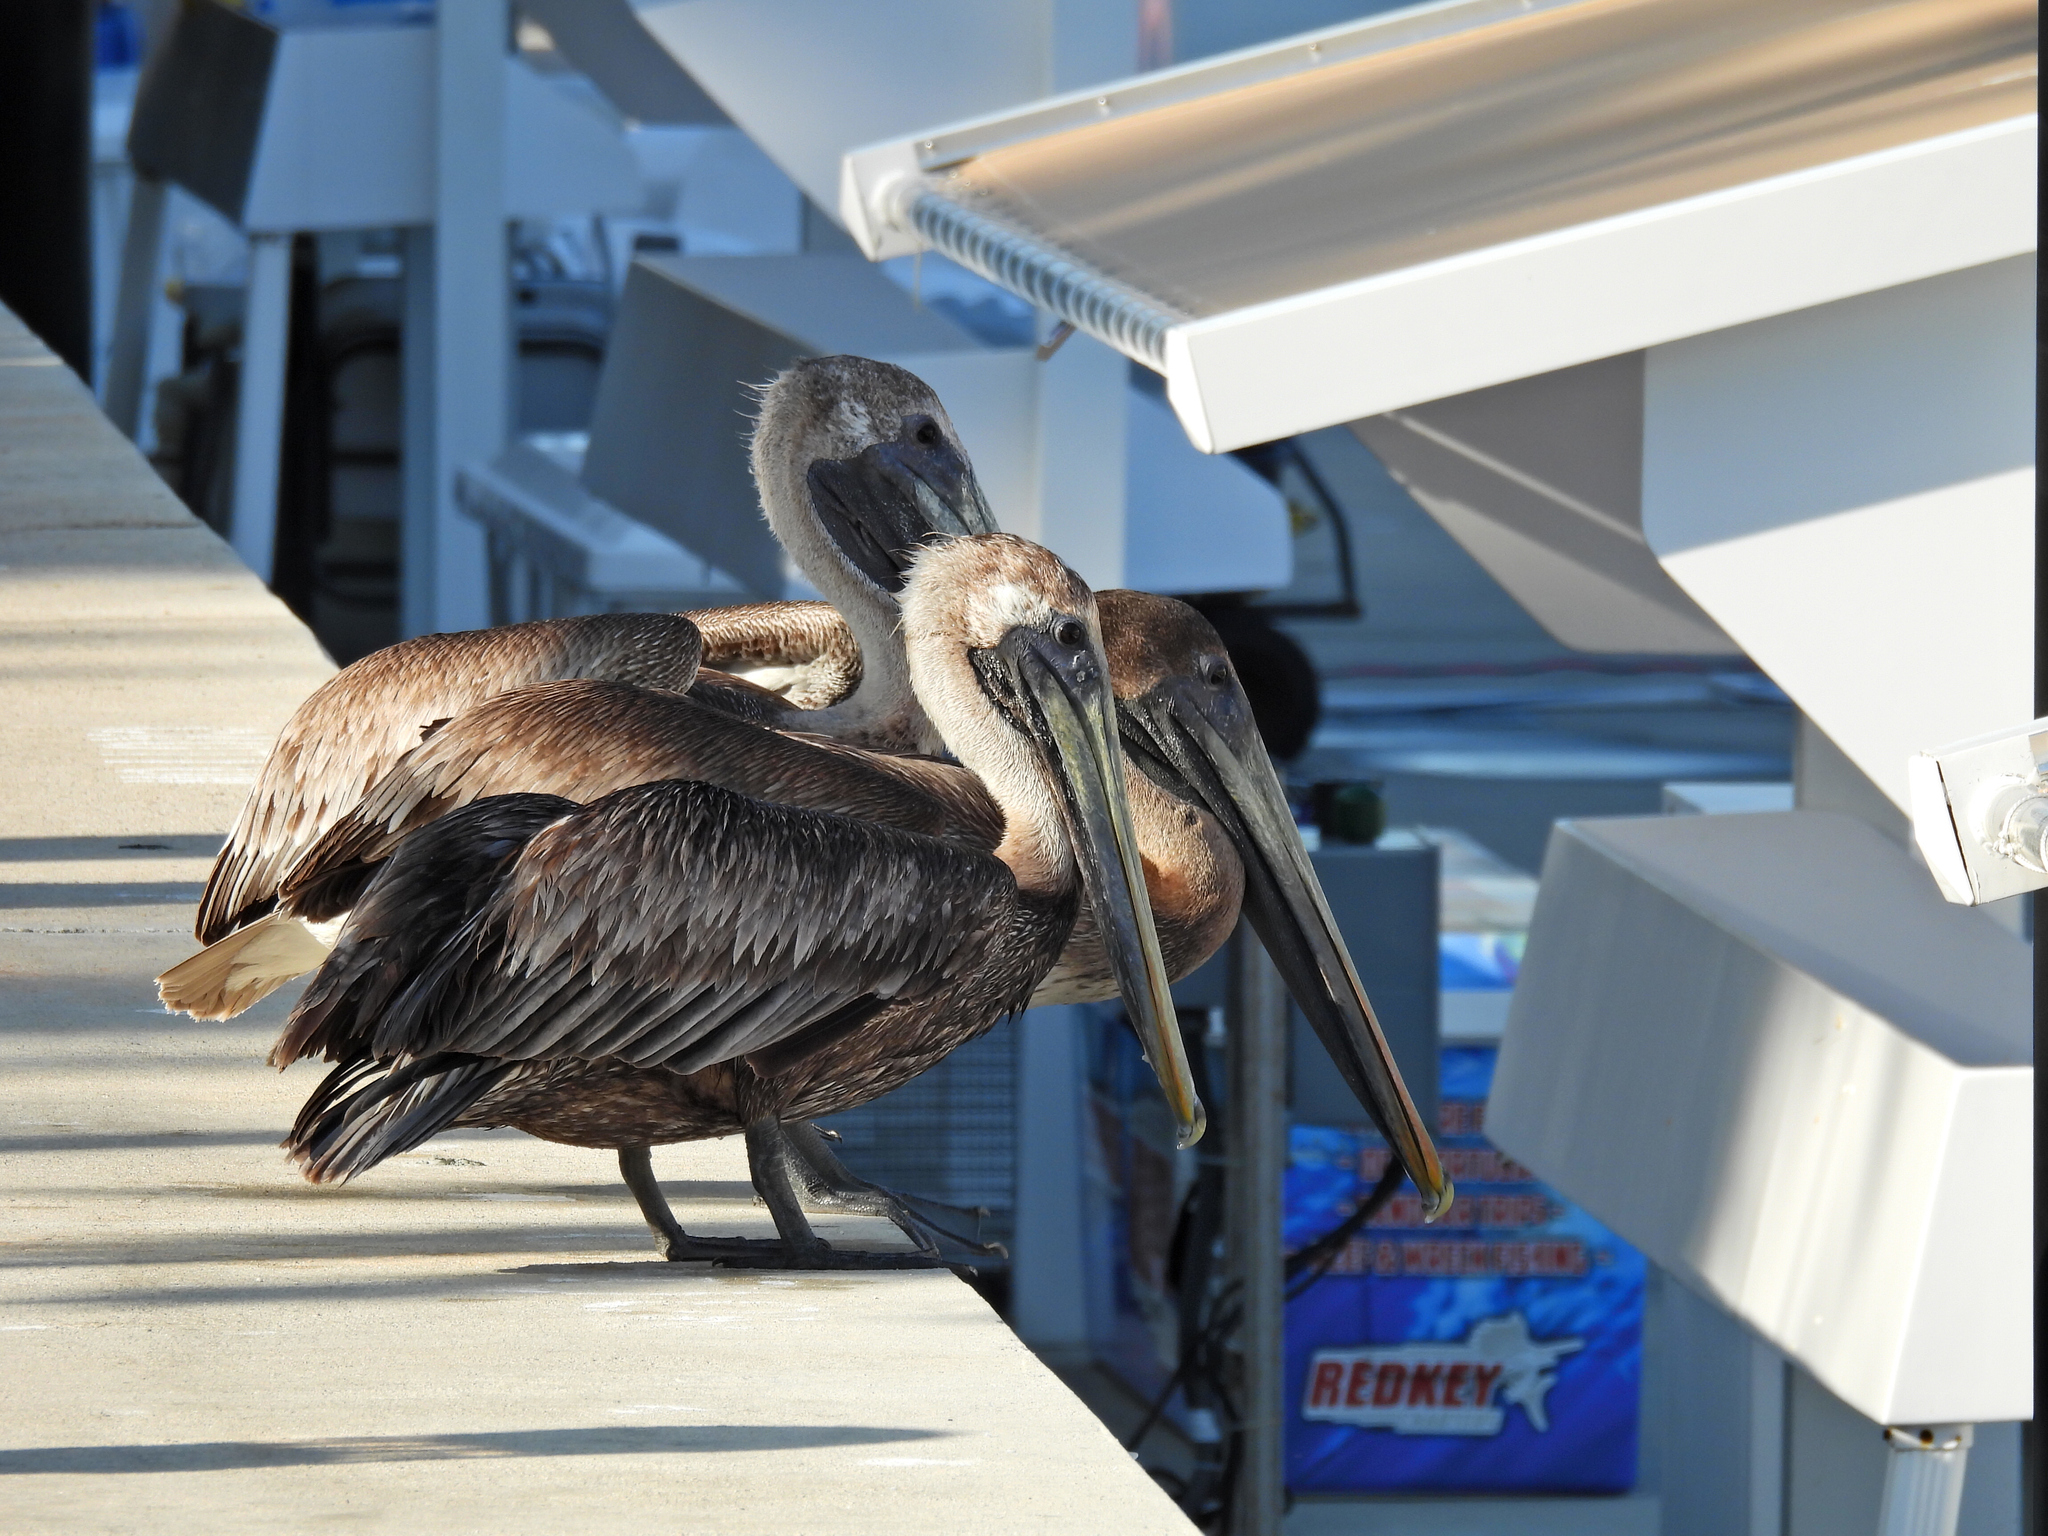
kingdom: Animalia
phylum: Chordata
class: Aves
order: Pelecaniformes
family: Pelecanidae
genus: Pelecanus
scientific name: Pelecanus occidentalis
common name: Brown pelican
